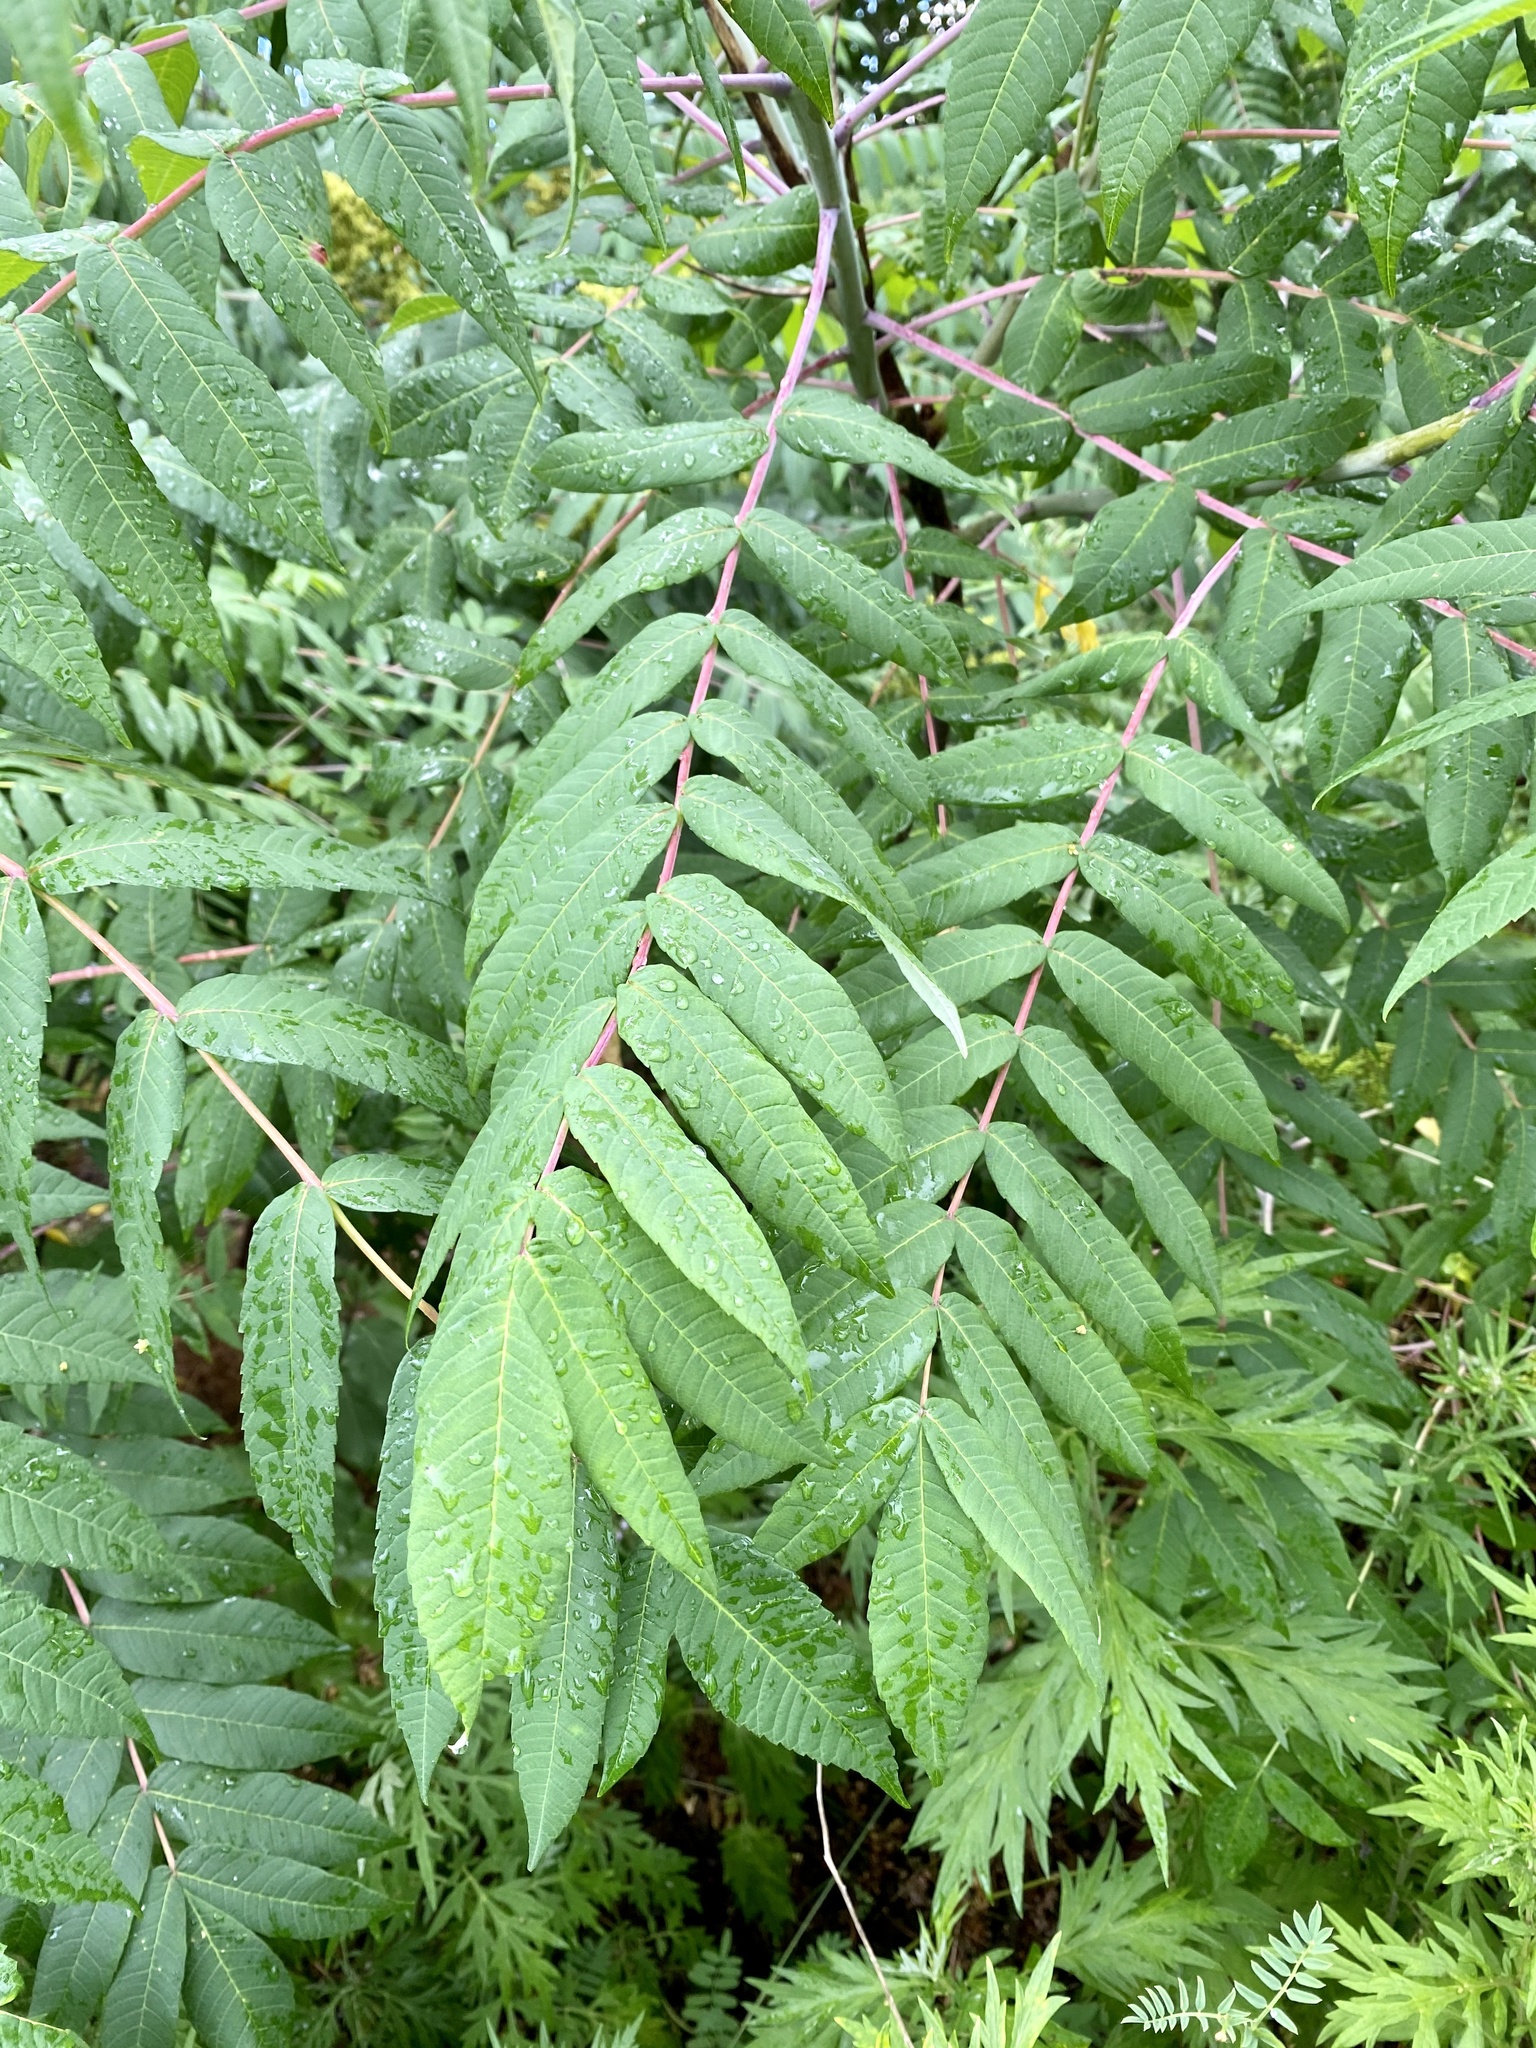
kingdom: Plantae
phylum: Tracheophyta
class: Magnoliopsida
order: Sapindales
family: Anacardiaceae
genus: Rhus
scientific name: Rhus glabra
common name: Scarlet sumac
